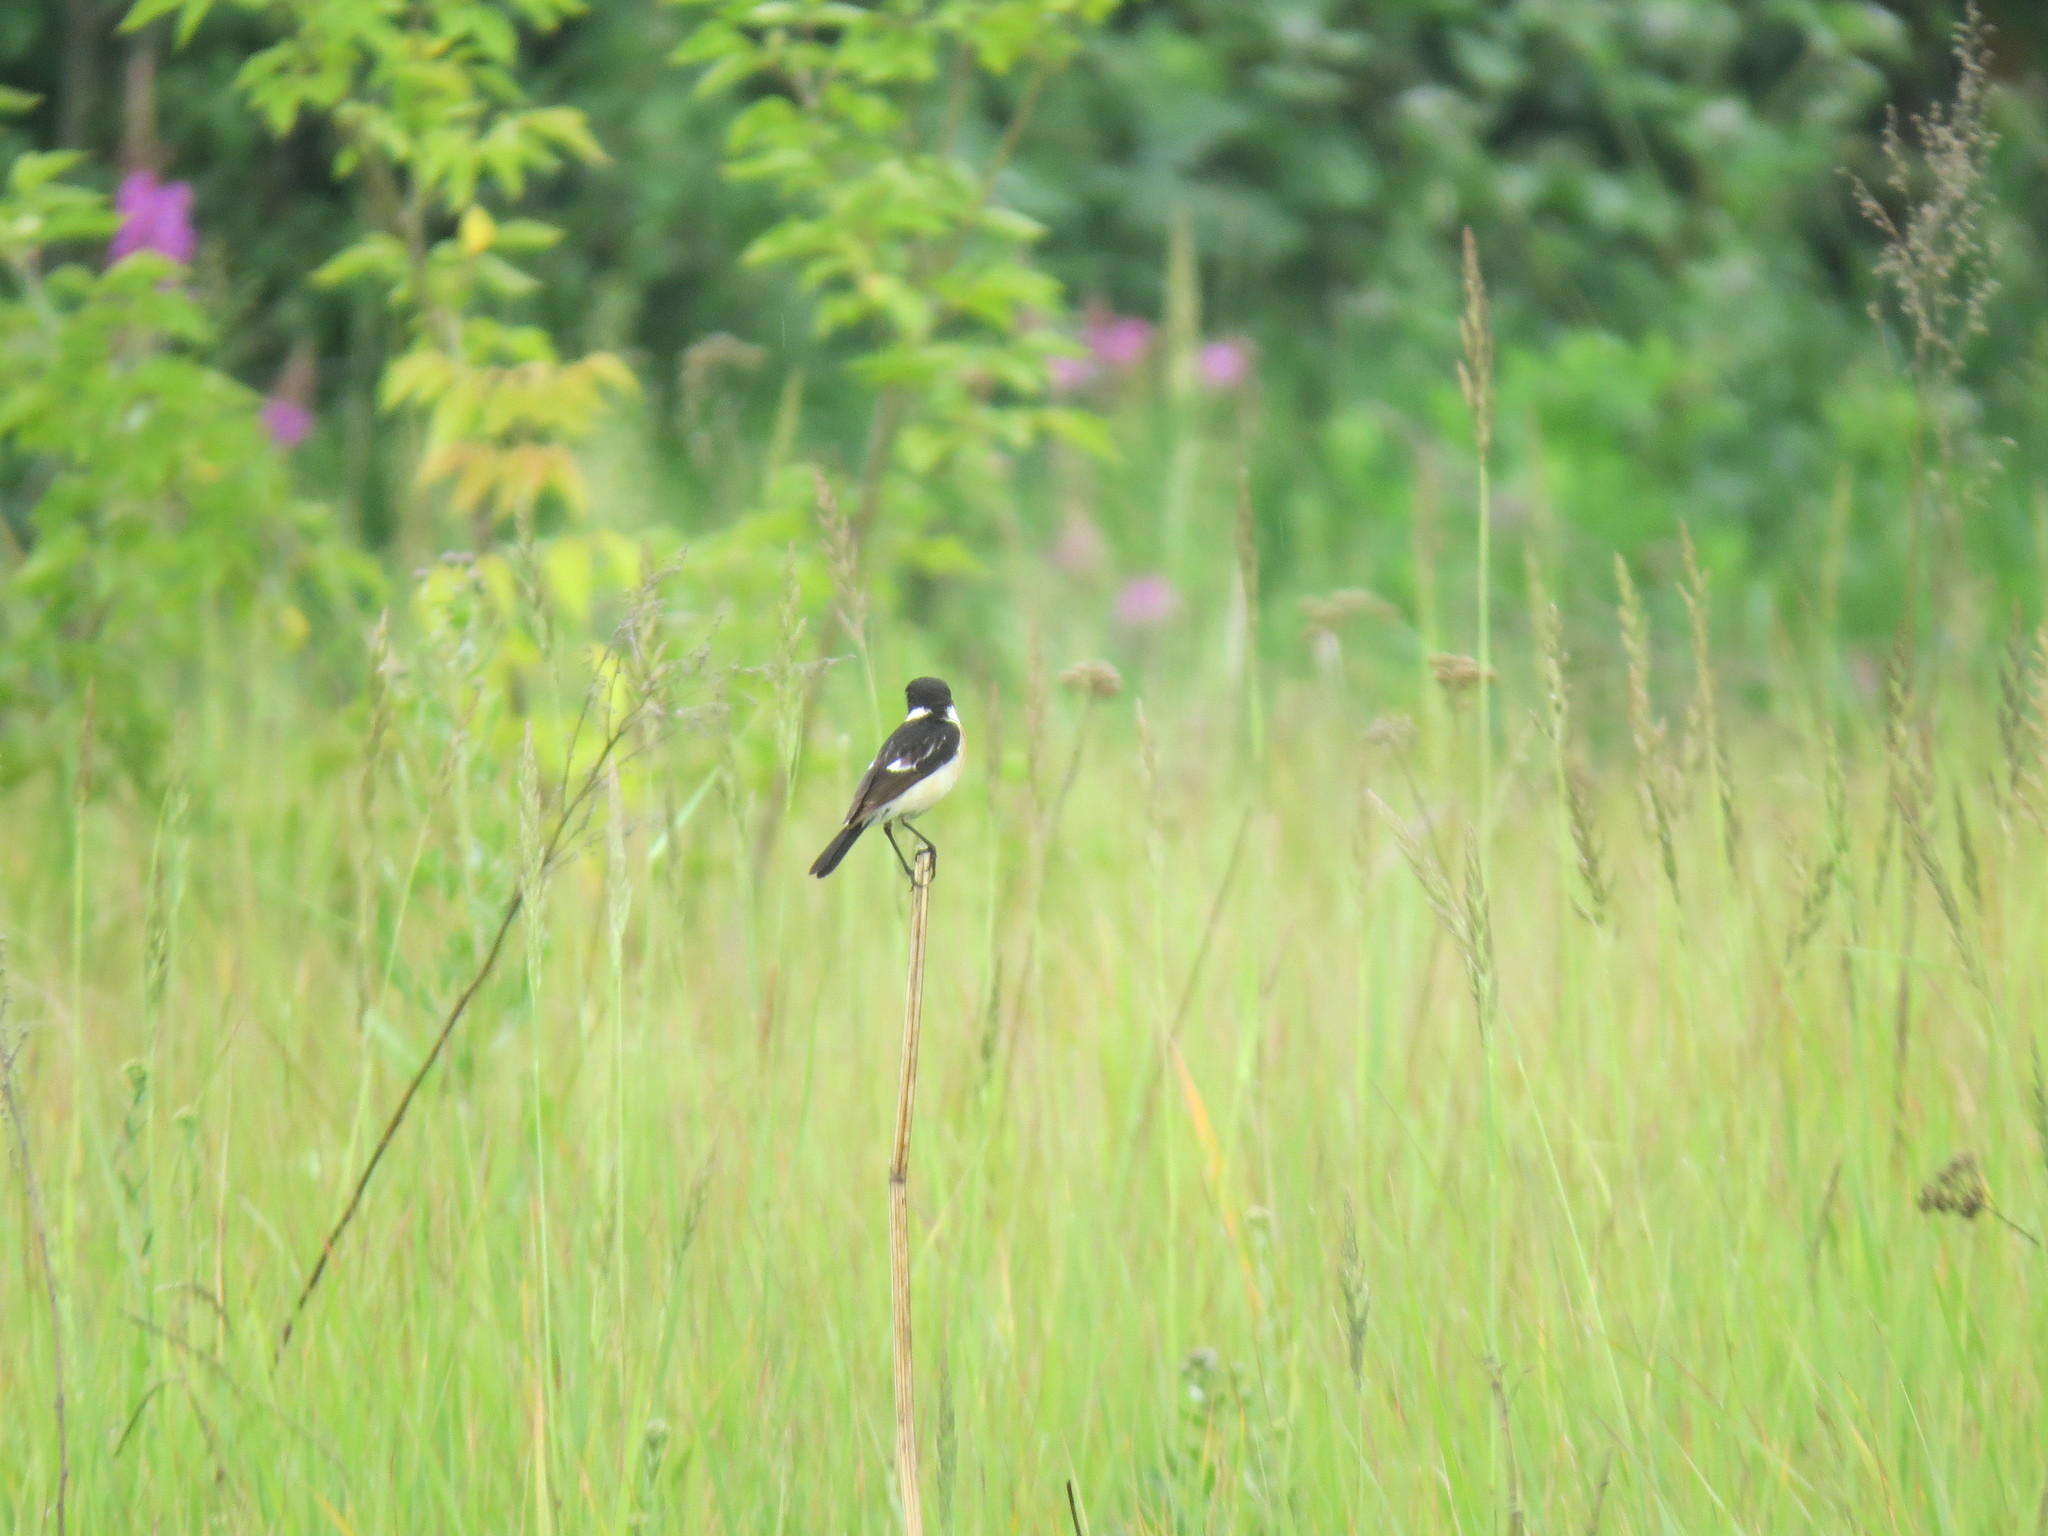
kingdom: Animalia
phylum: Chordata
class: Aves
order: Passeriformes
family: Muscicapidae
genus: Saxicola
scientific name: Saxicola maurus
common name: Siberian stonechat
